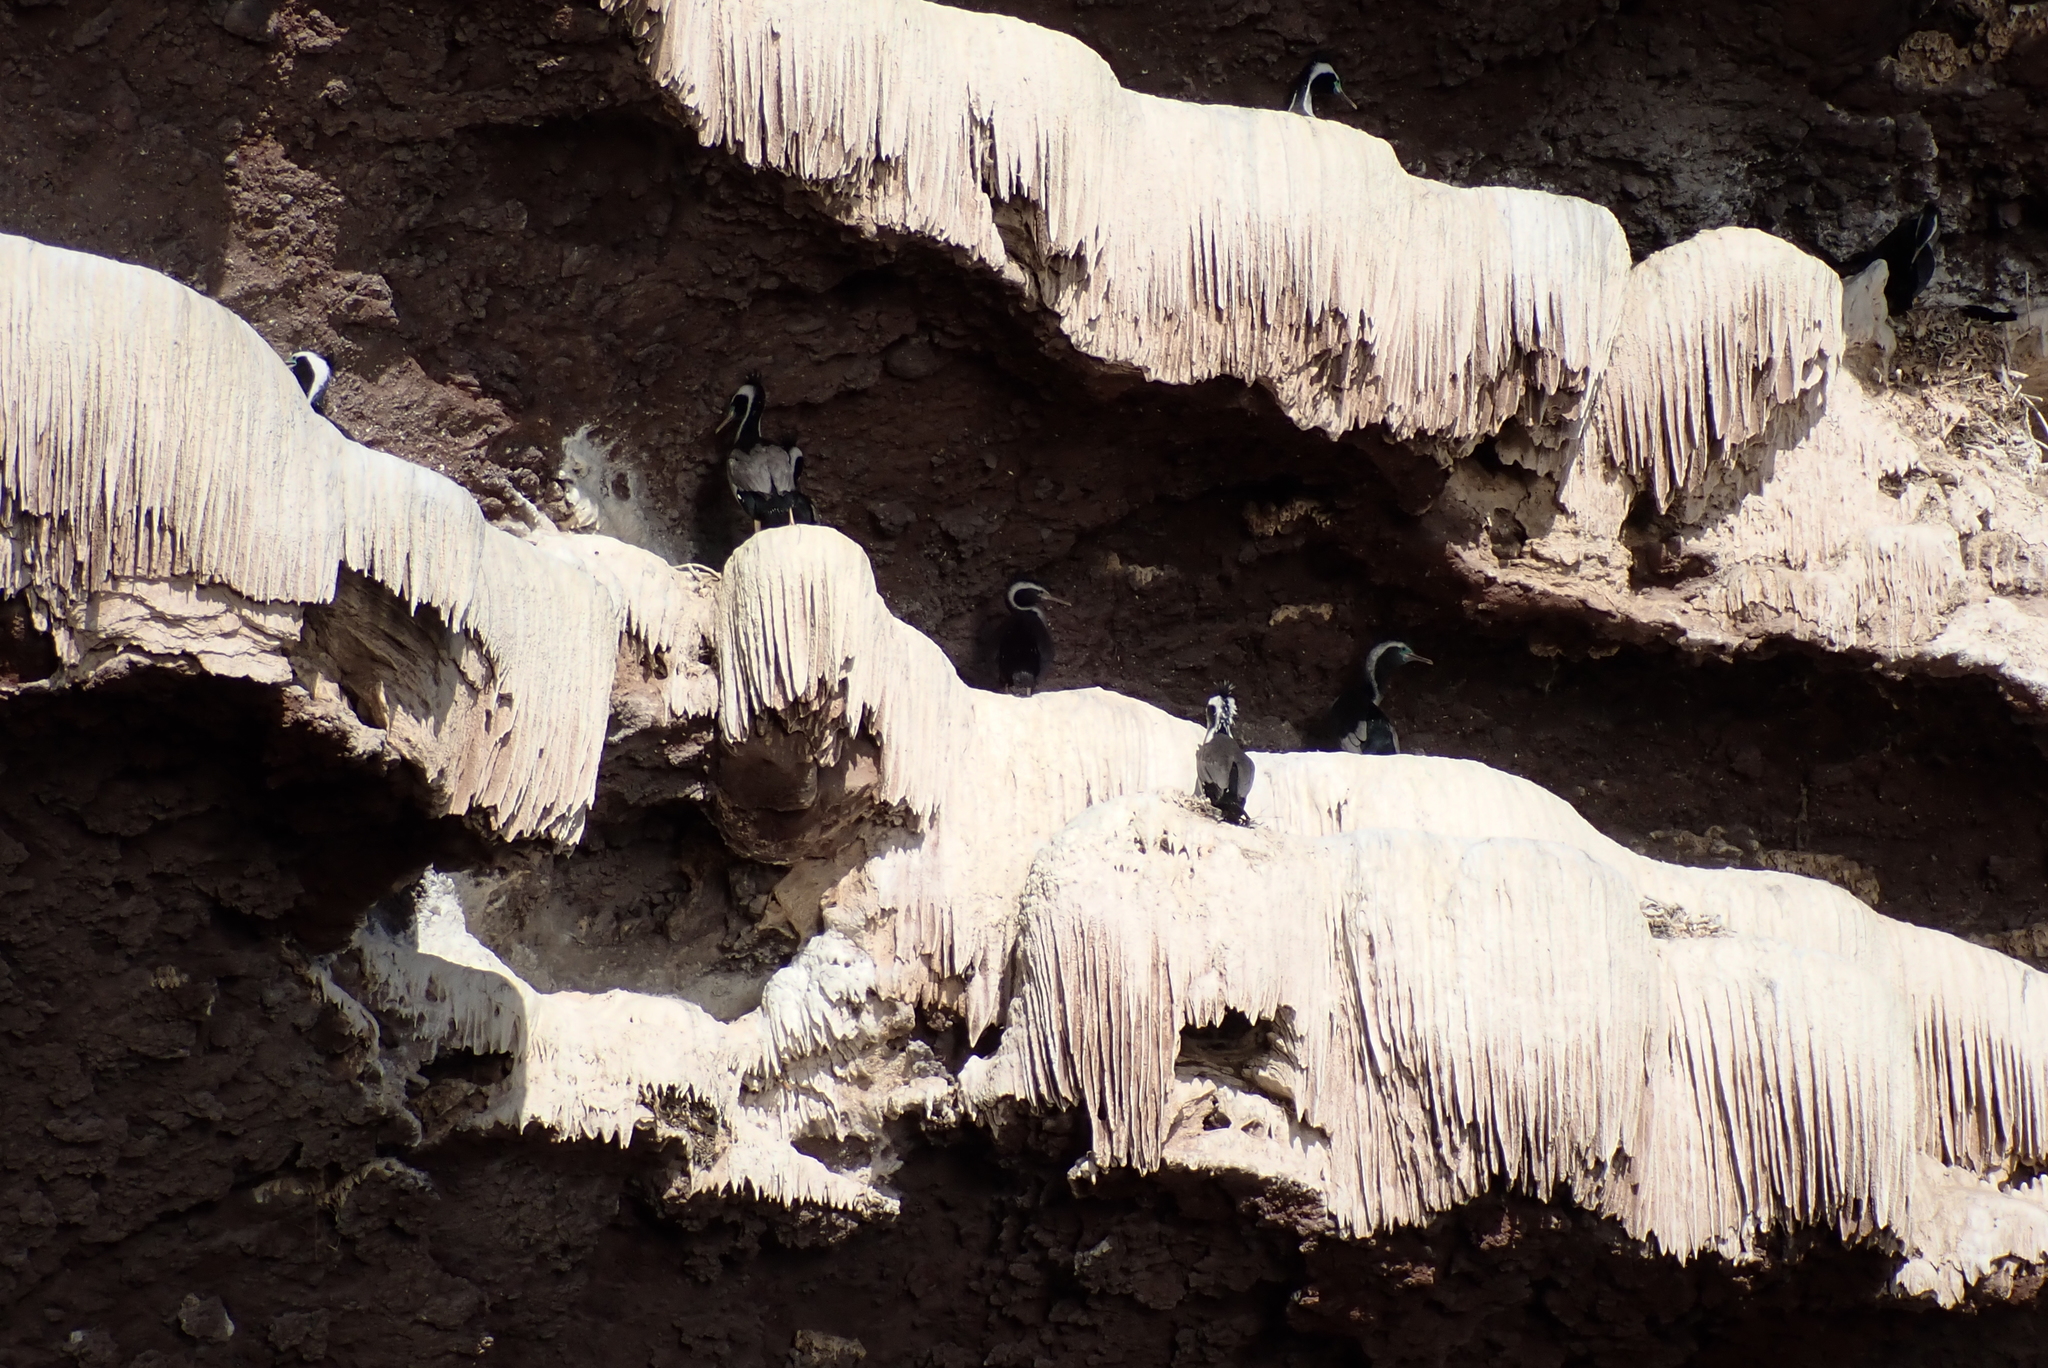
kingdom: Animalia
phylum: Chordata
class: Aves
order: Suliformes
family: Phalacrocoracidae
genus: Phalacrocorax
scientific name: Phalacrocorax punctatus
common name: Spotted shag
